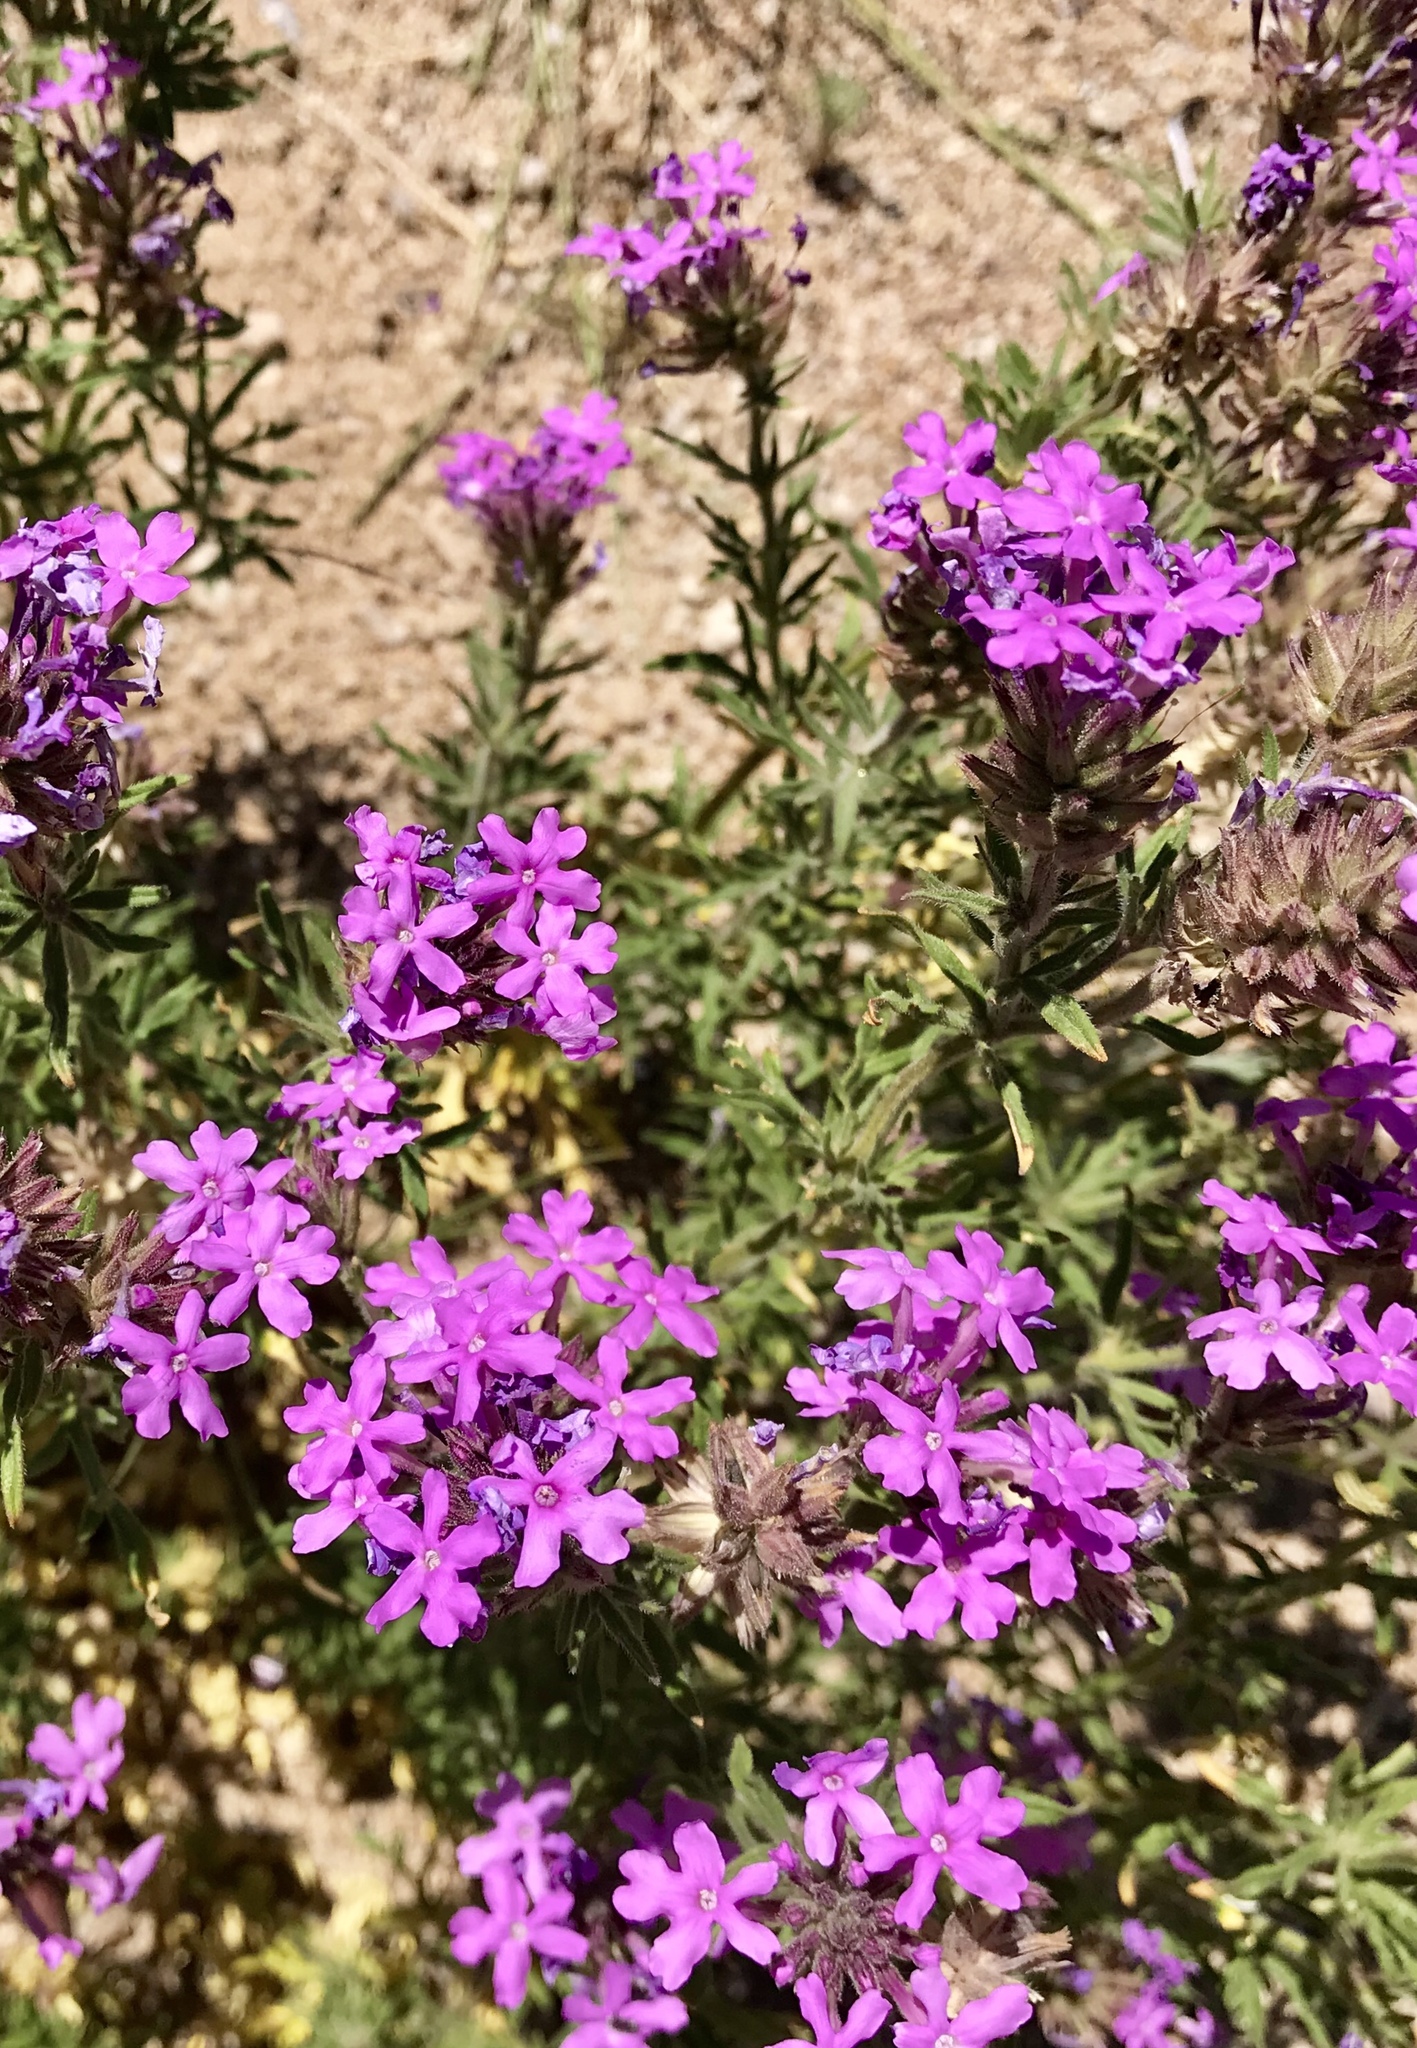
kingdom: Plantae
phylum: Tracheophyta
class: Magnoliopsida
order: Lamiales
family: Verbenaceae
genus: Verbena
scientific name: Verbena bipinnatifida
